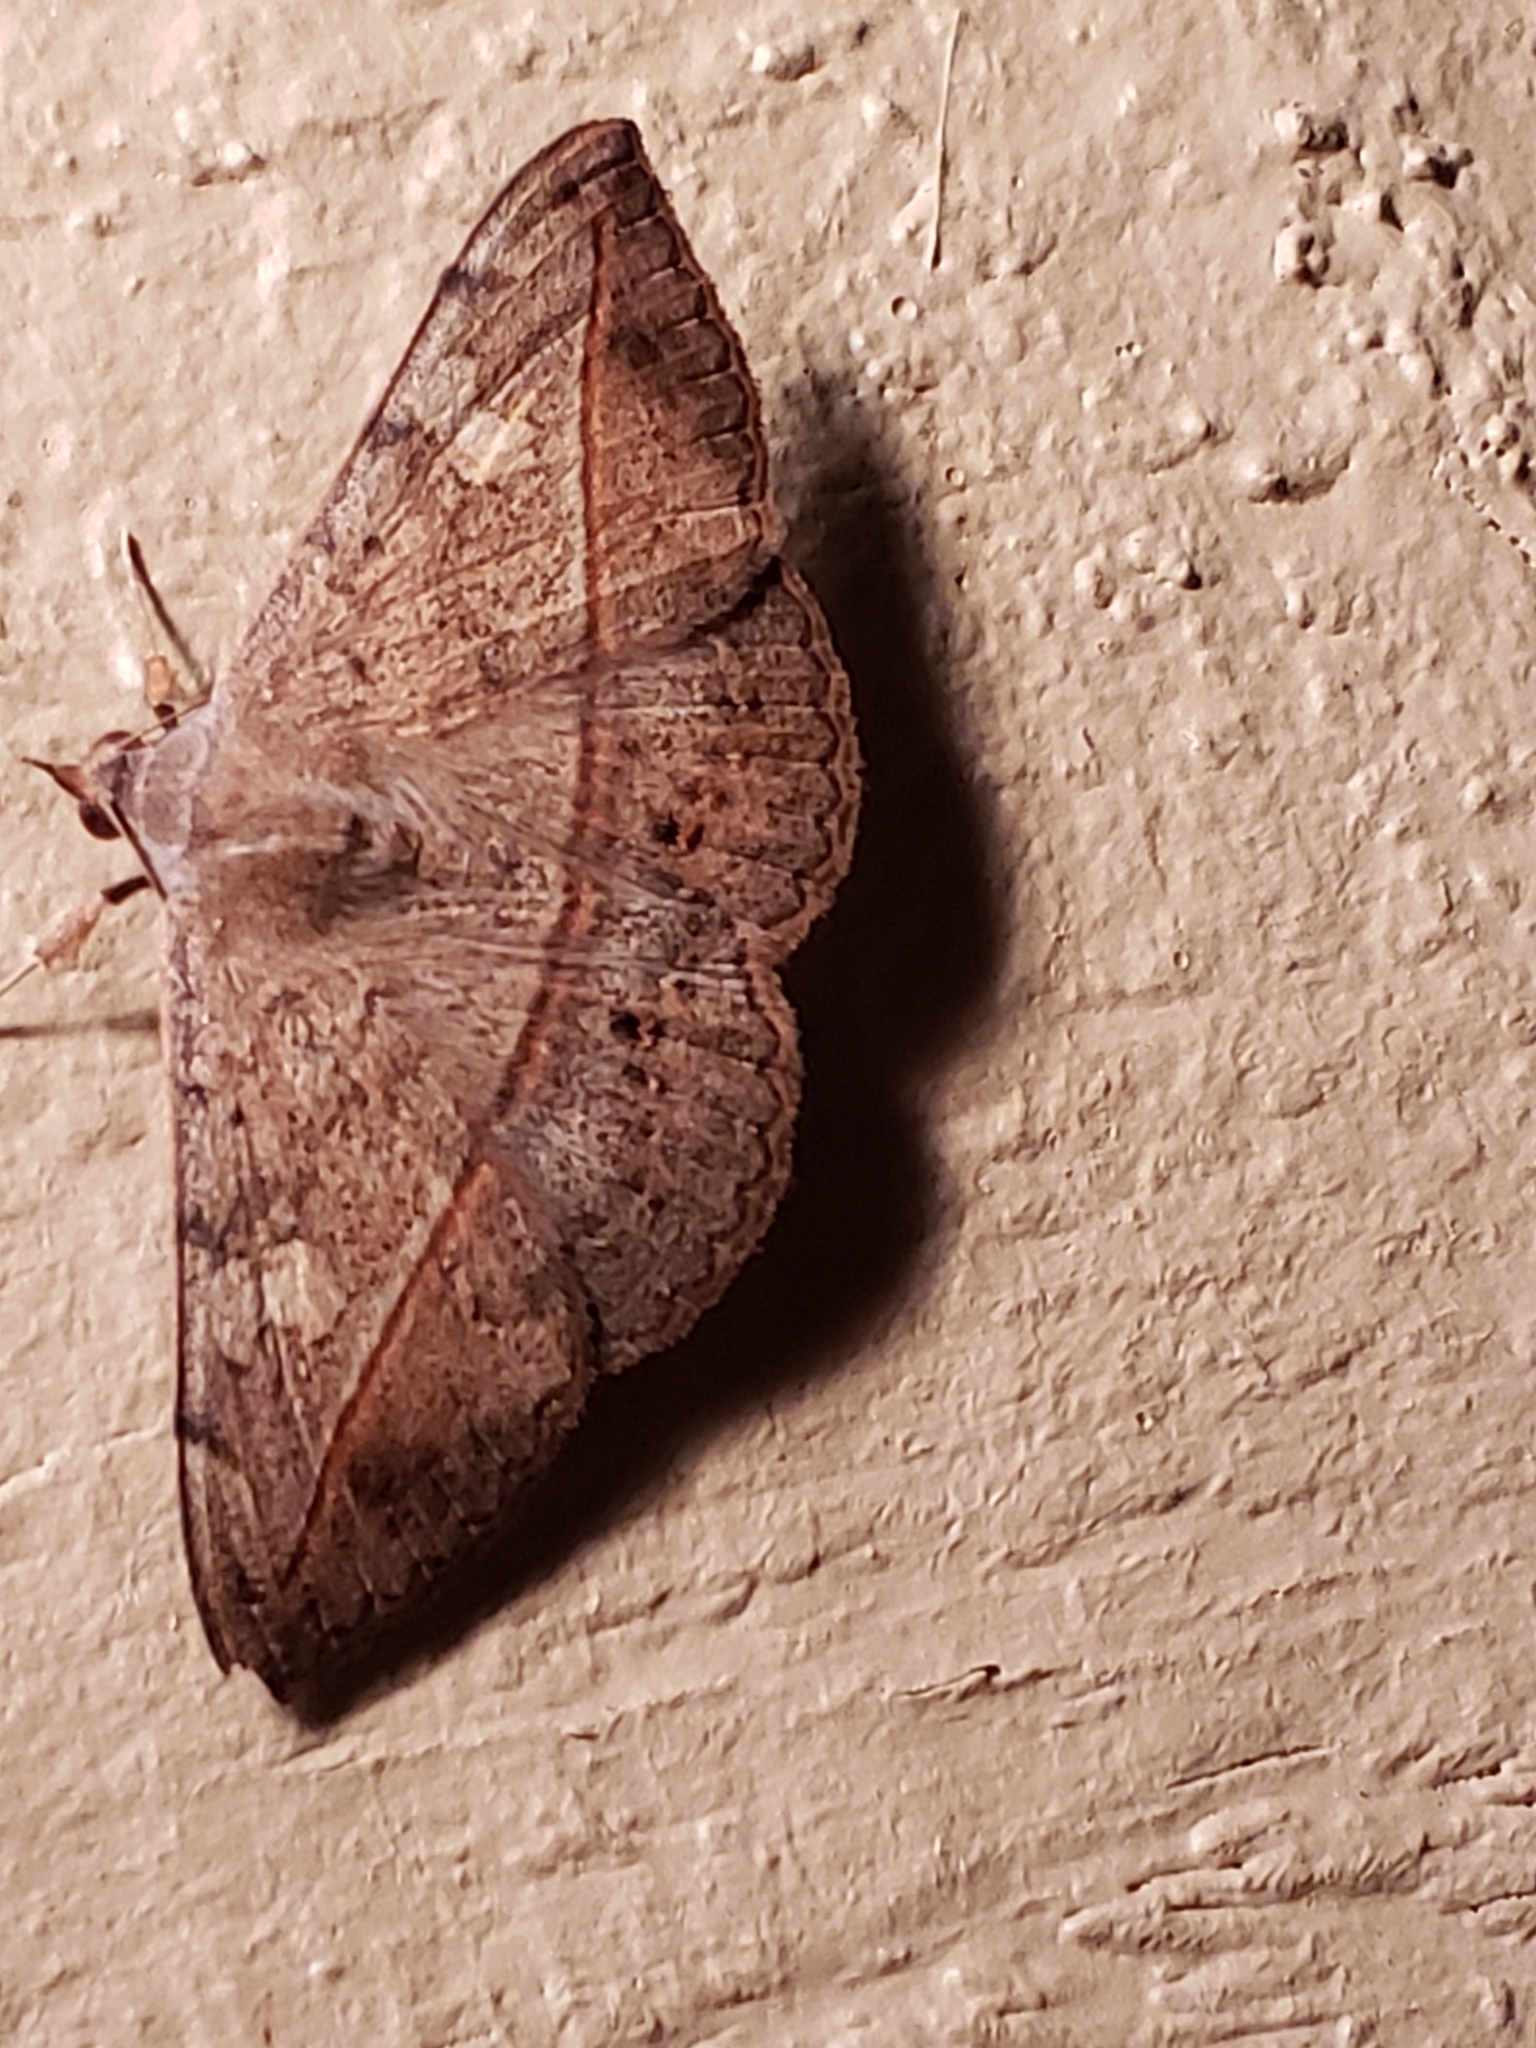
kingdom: Animalia
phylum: Arthropoda
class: Insecta
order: Lepidoptera
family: Erebidae
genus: Anticarsia
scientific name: Anticarsia gemmatalis
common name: Cutworm moth
